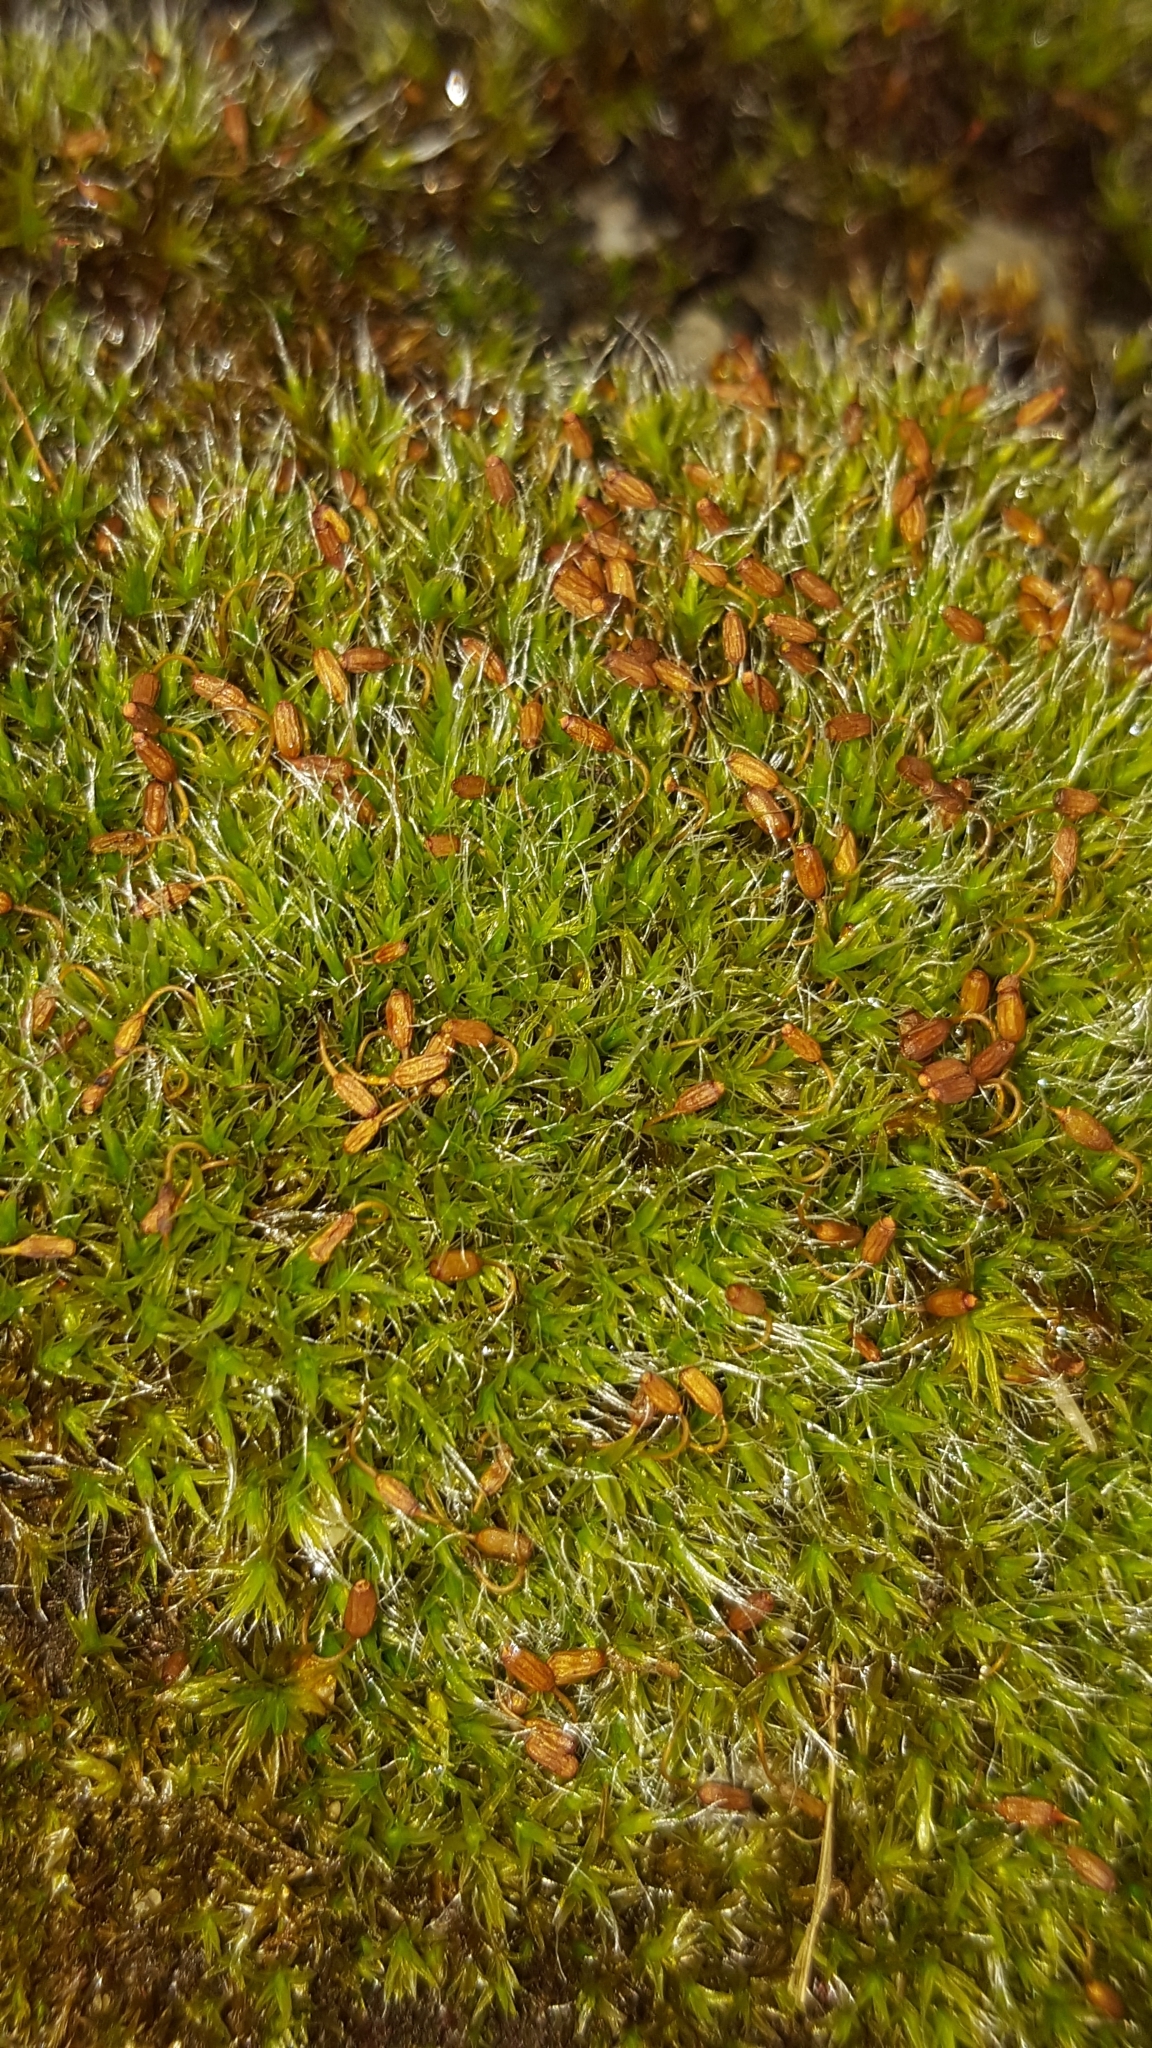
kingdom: Plantae
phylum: Bryophyta
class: Bryopsida
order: Grimmiales
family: Grimmiaceae
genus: Grimmia
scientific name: Grimmia pulvinata
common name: Grey-cushioned grimmia
